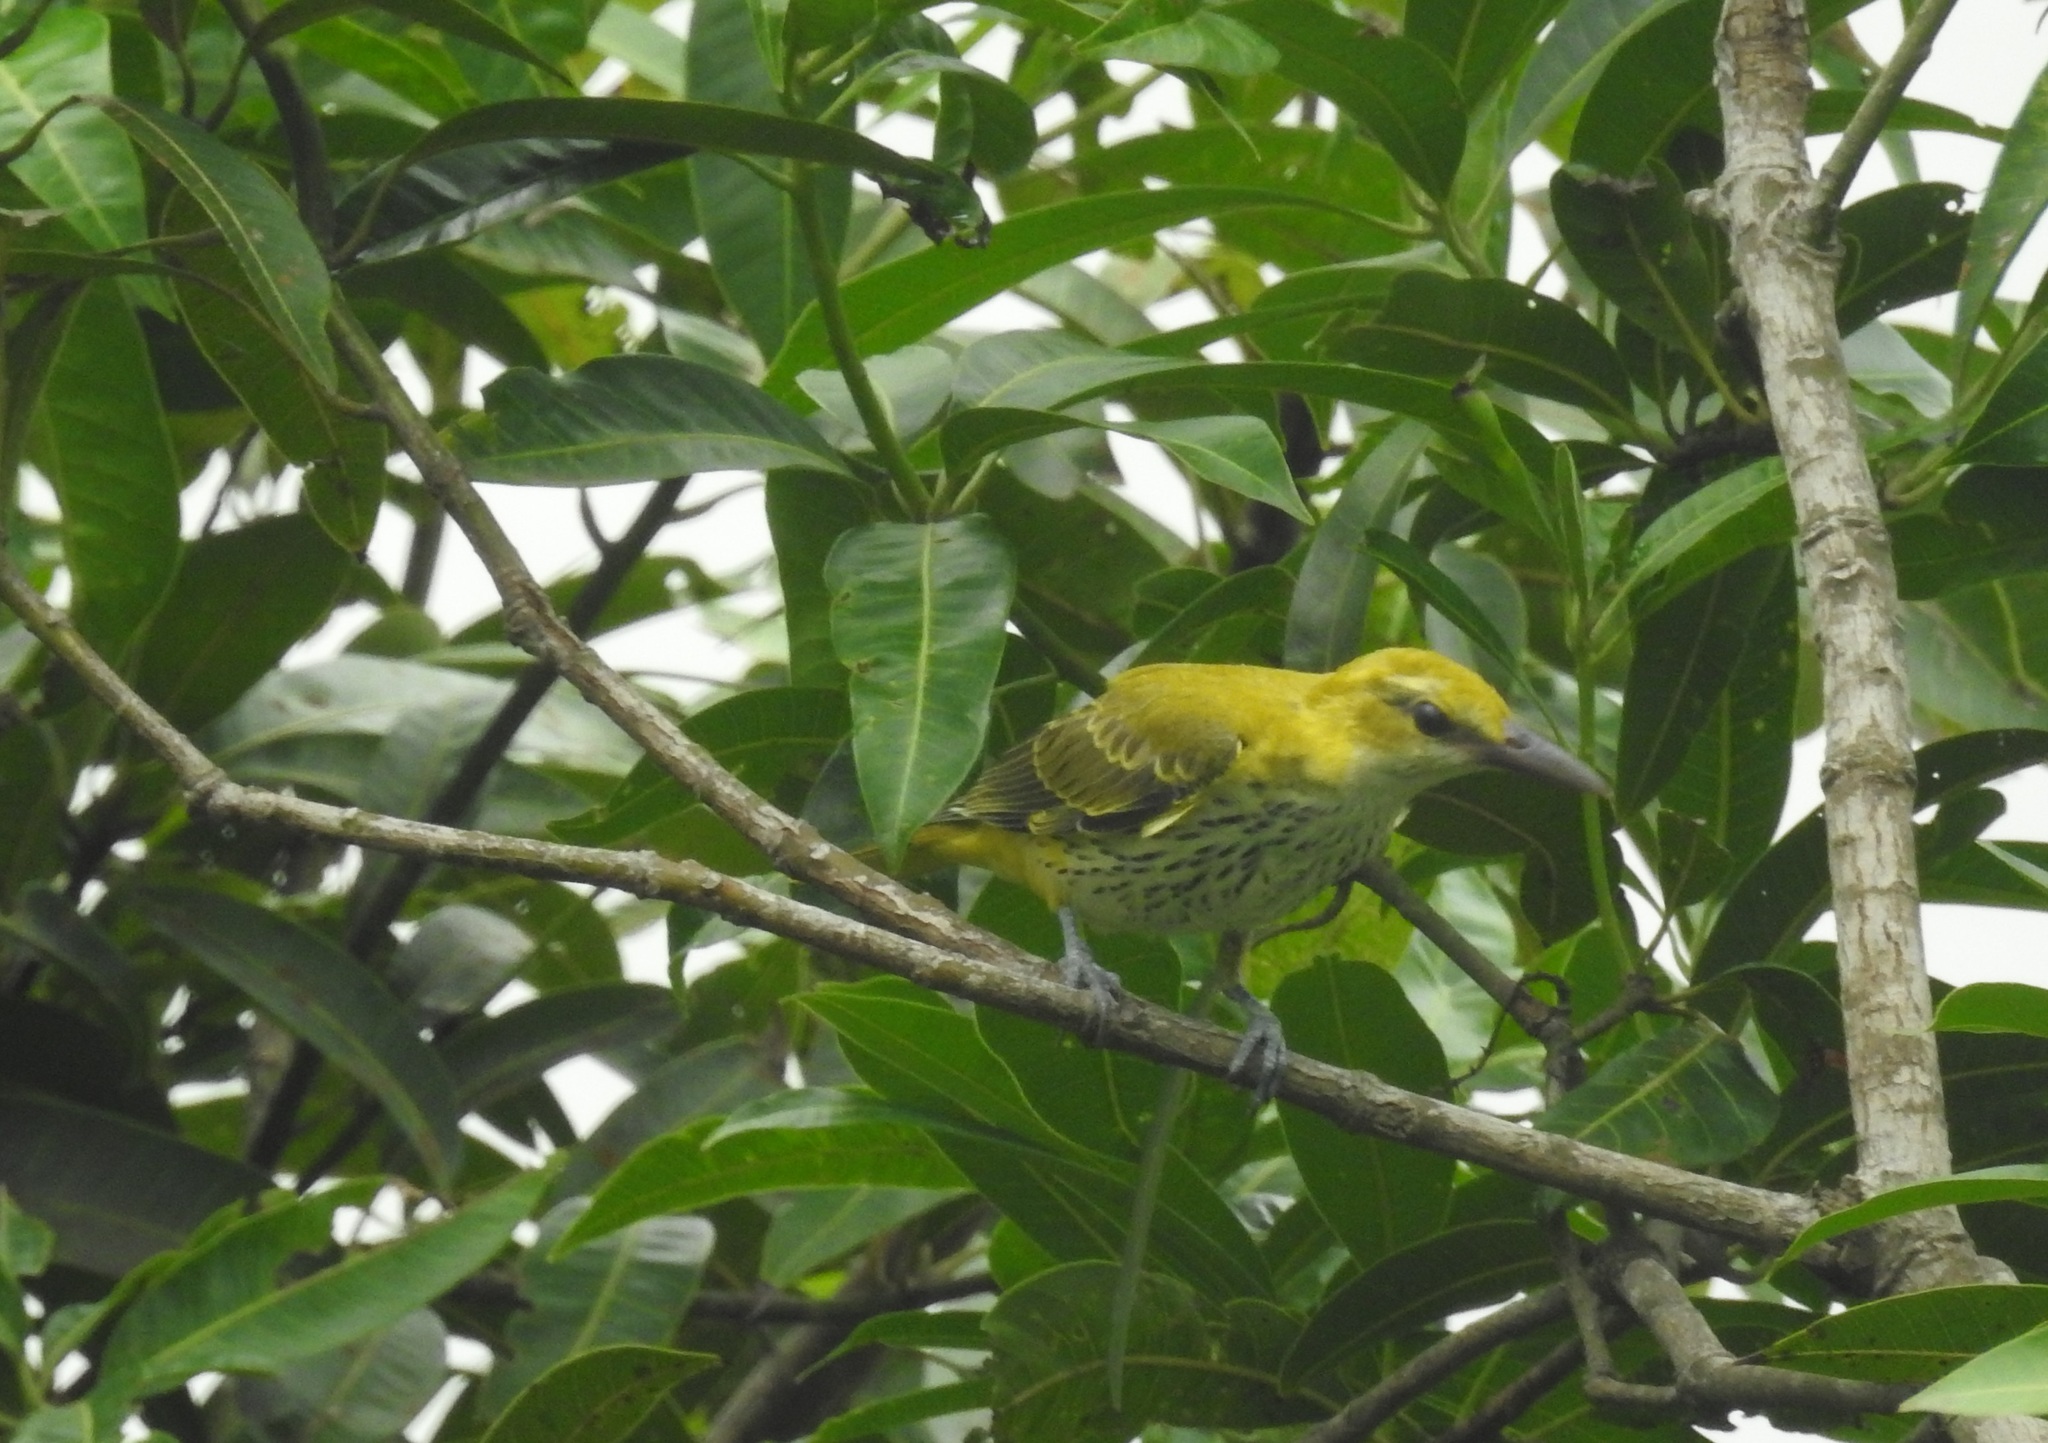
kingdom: Animalia
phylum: Chordata
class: Aves
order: Passeriformes
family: Oriolidae
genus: Oriolus
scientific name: Oriolus kundoo
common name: Indian golden oriole
